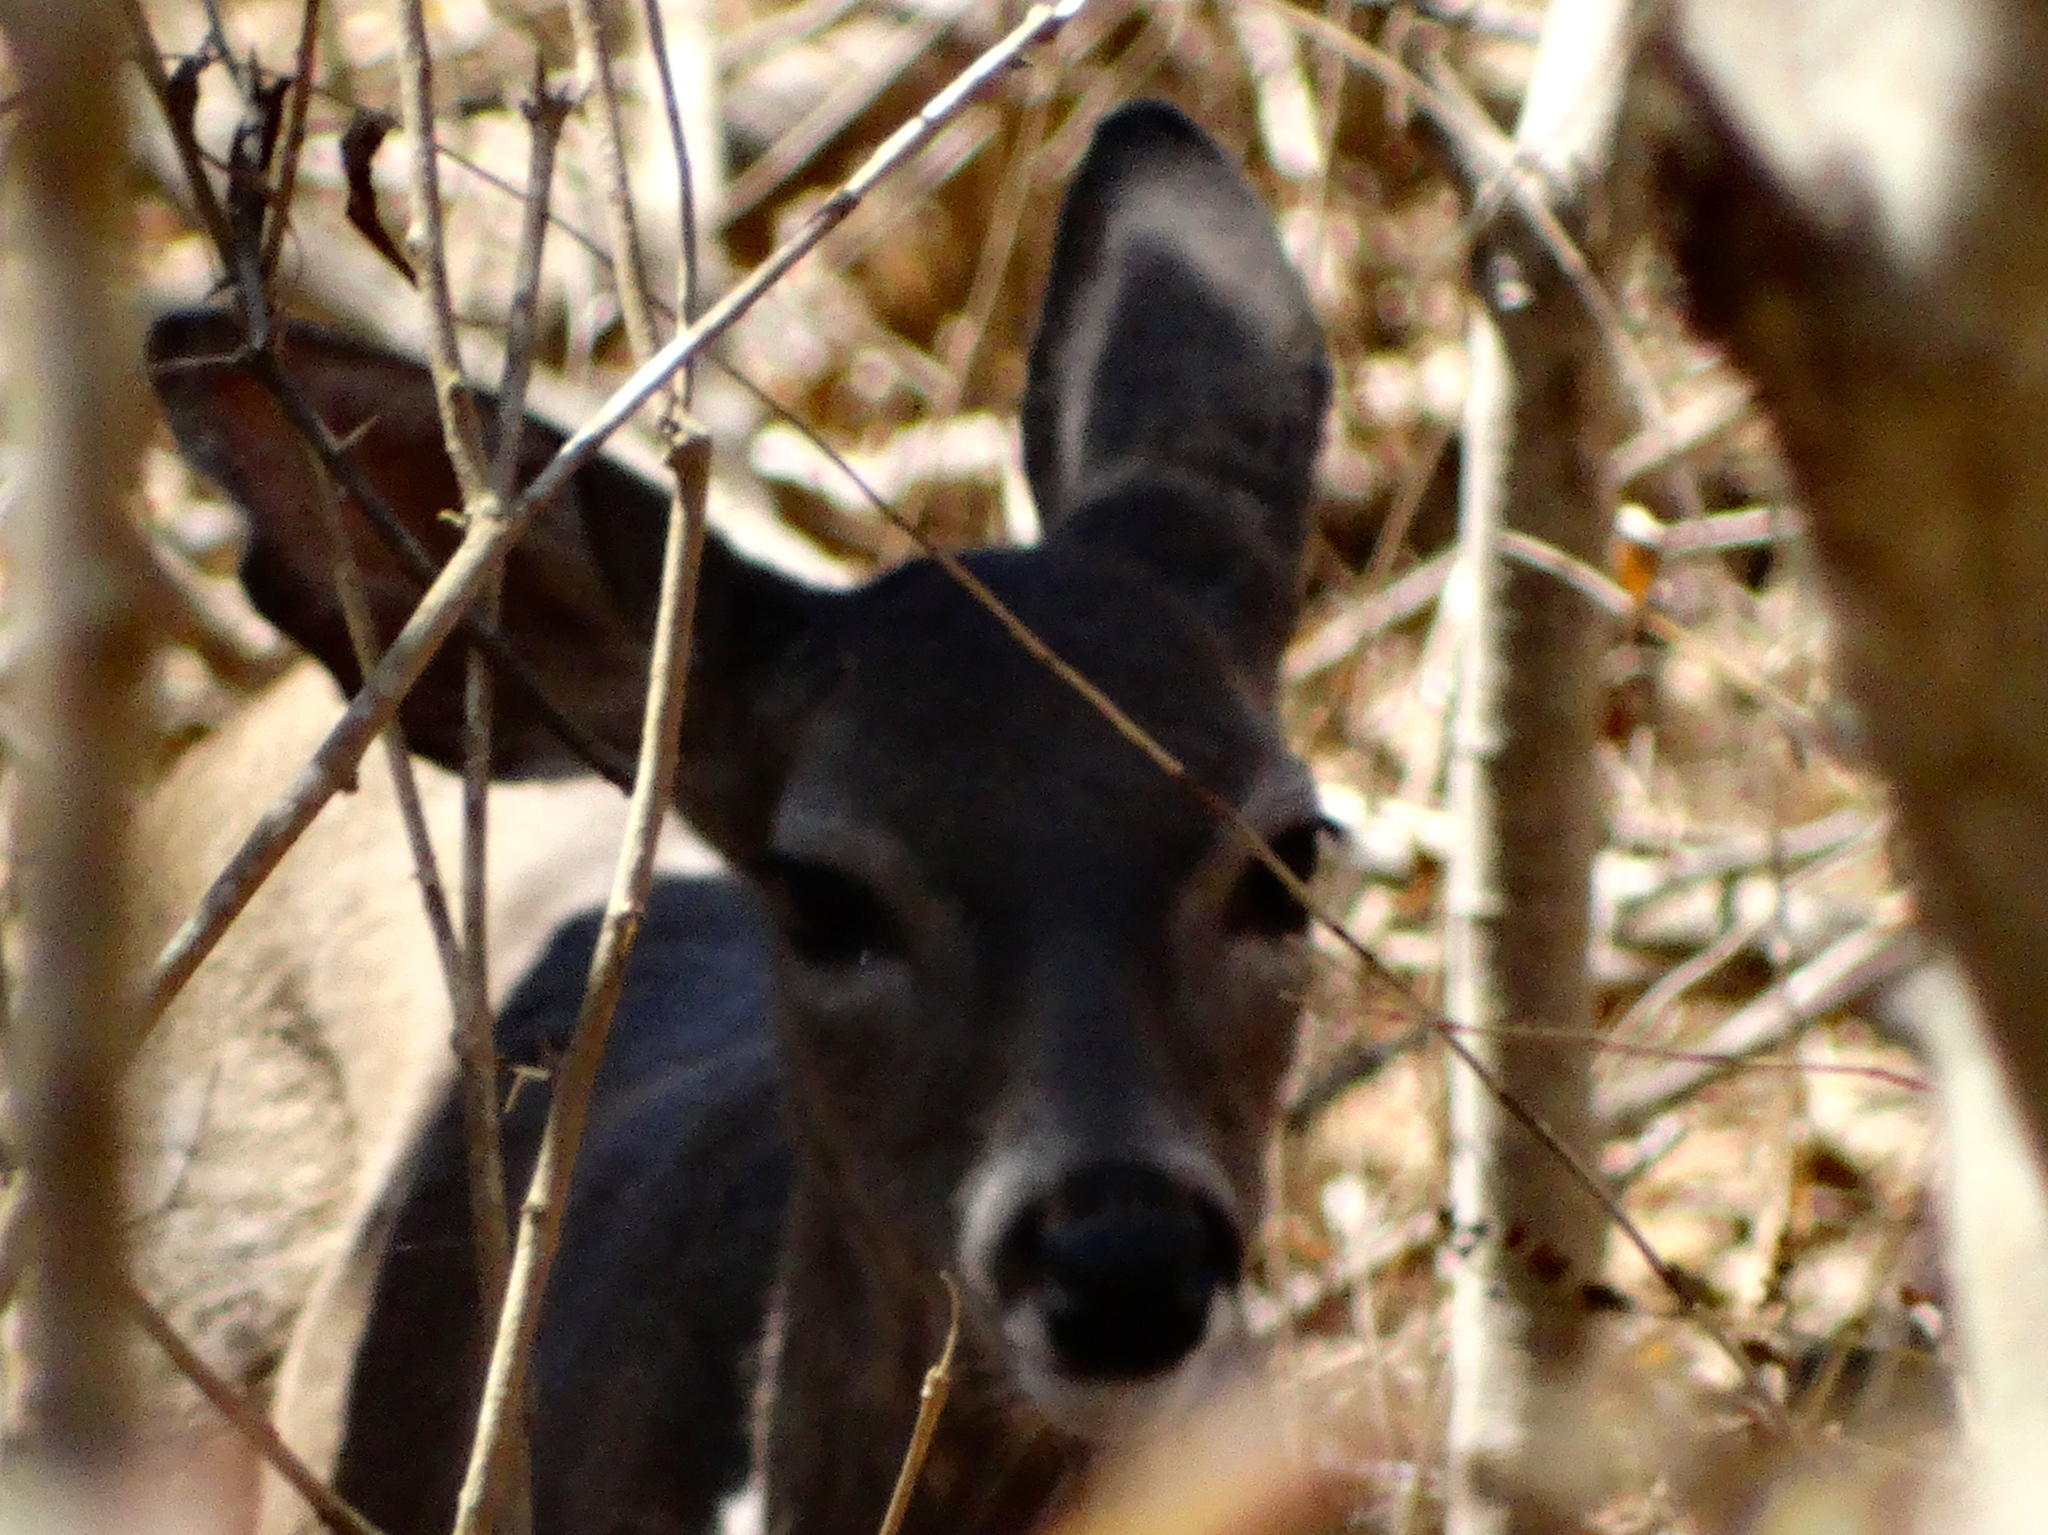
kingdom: Animalia
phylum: Chordata
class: Mammalia
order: Artiodactyla
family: Cervidae
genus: Odocoileus
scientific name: Odocoileus virginianus
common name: White-tailed deer
